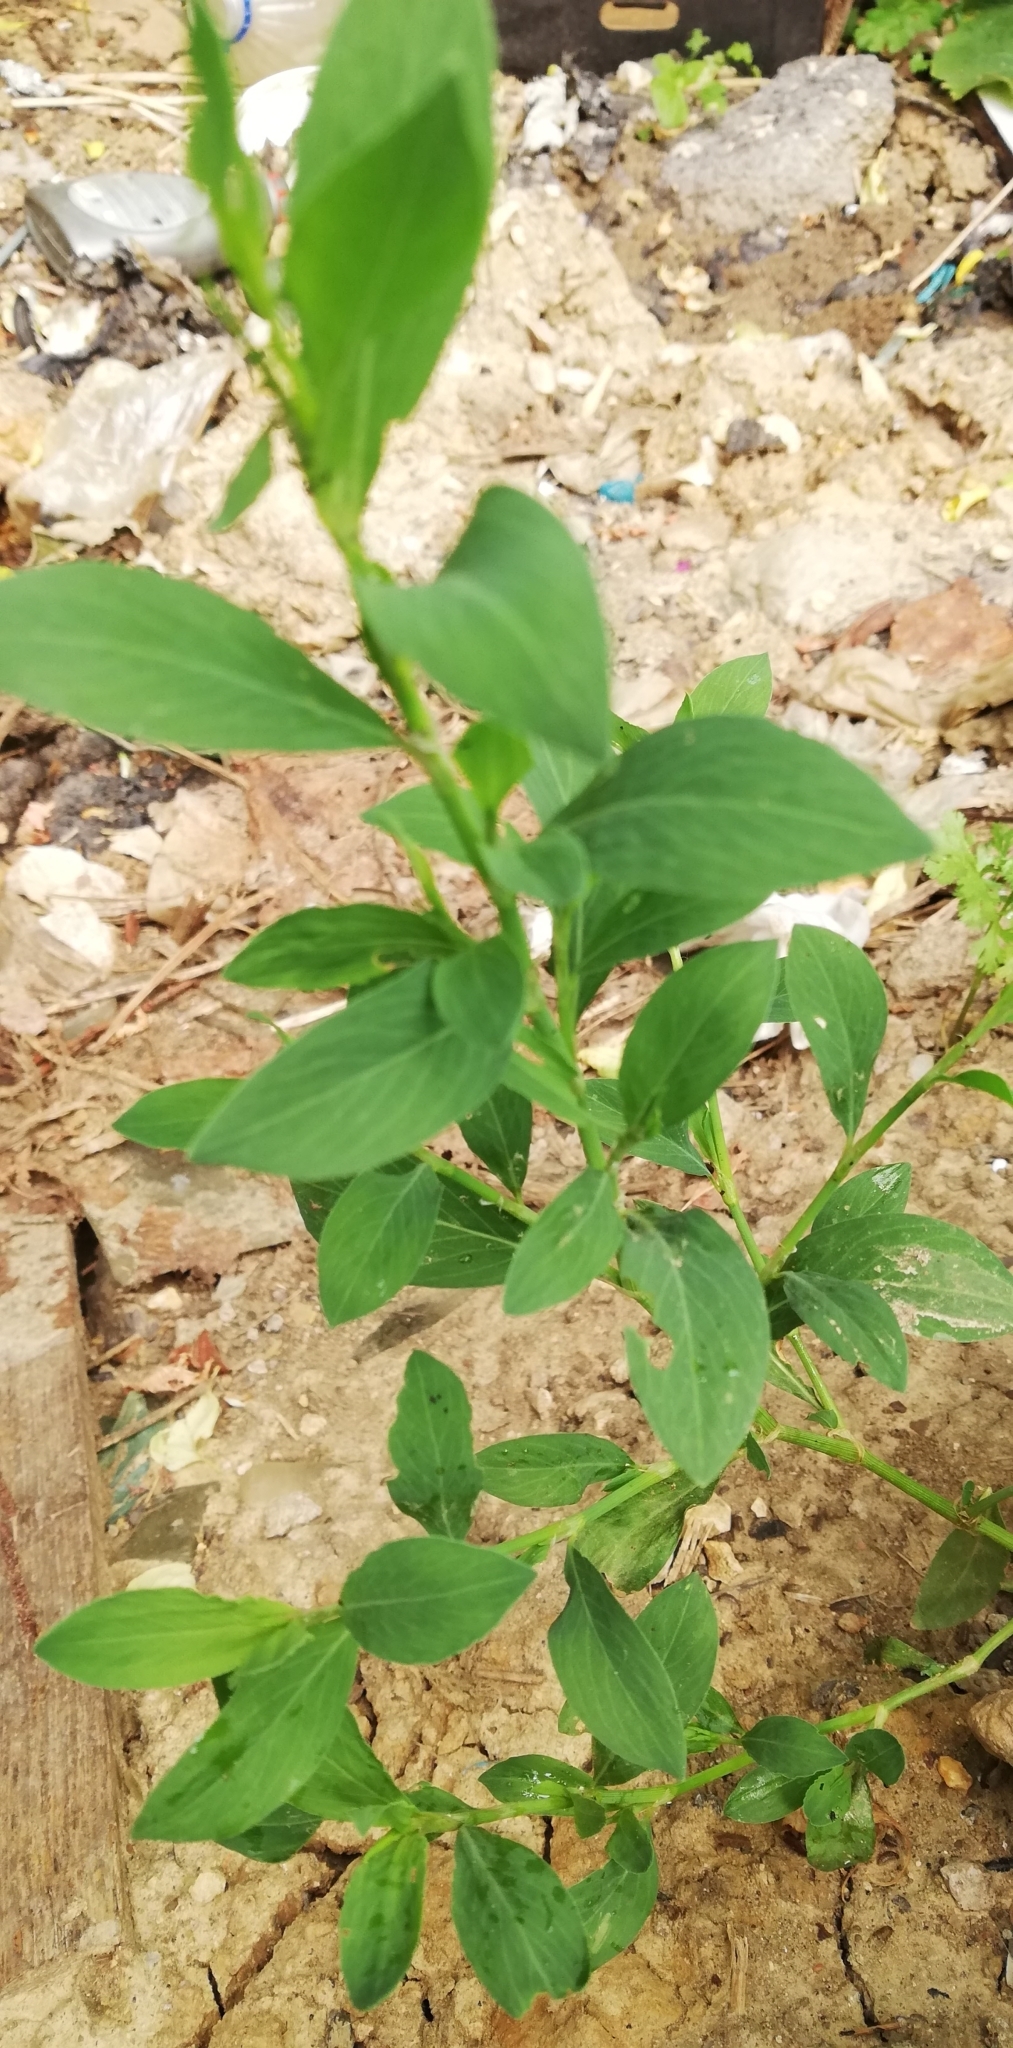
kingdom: Plantae
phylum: Tracheophyta
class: Magnoliopsida
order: Caryophyllales
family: Polygonaceae
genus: Polygonum
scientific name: Polygonum
